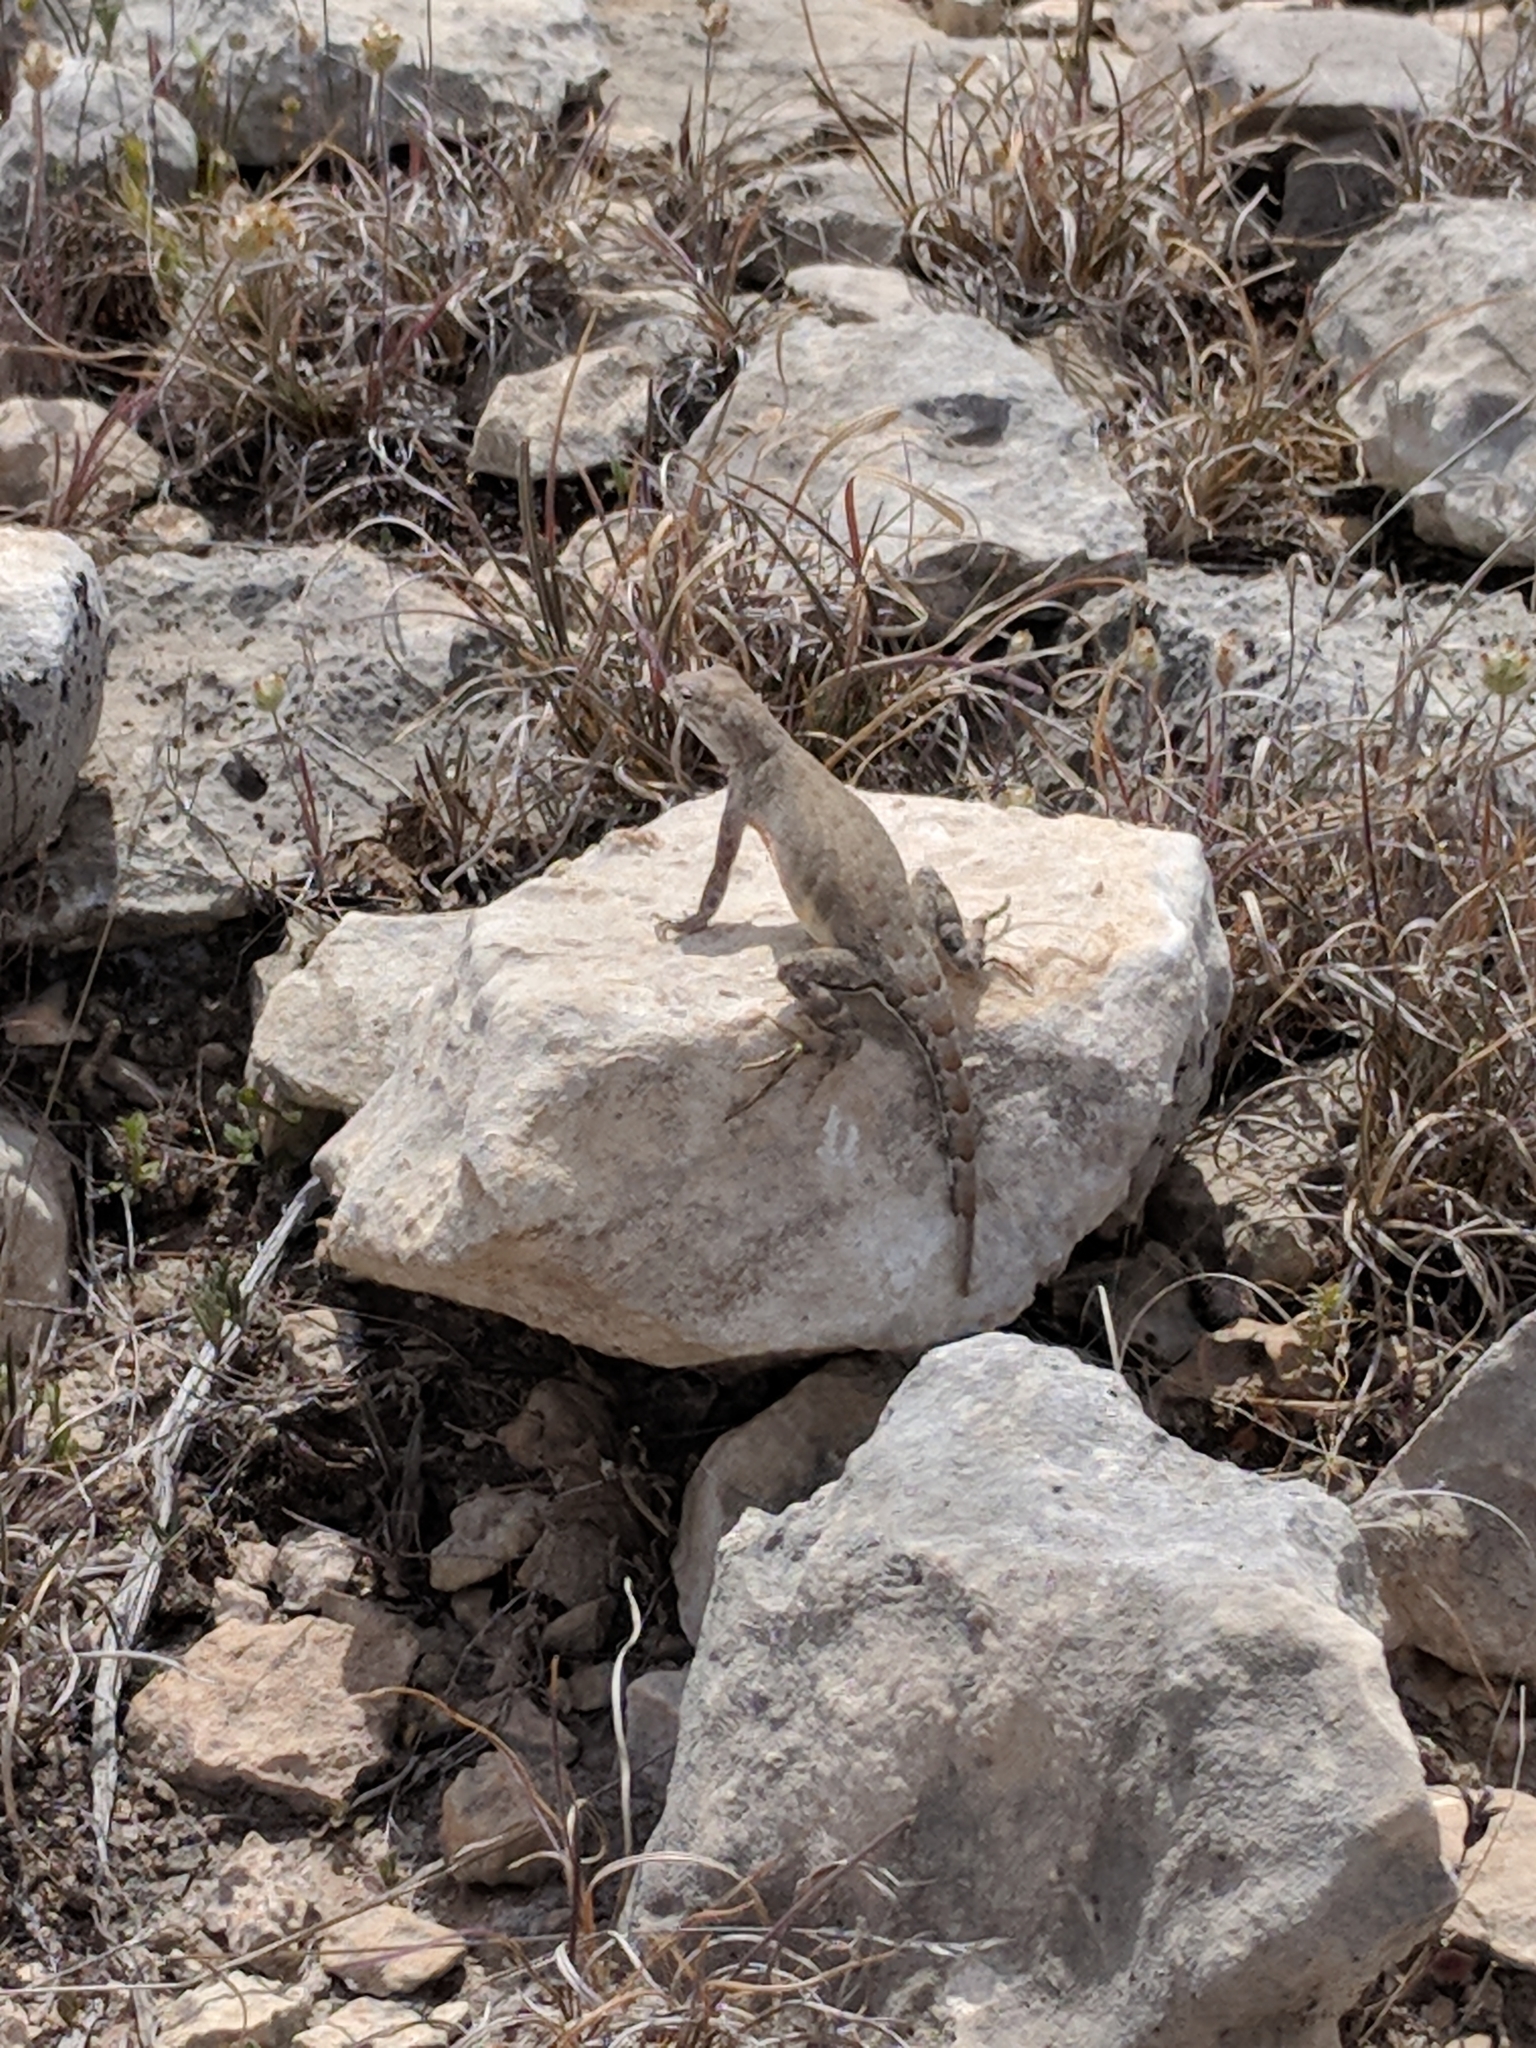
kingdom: Animalia
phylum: Chordata
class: Squamata
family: Phrynosomatidae
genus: Cophosaurus
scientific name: Cophosaurus texanus
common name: Greater earless lizard
